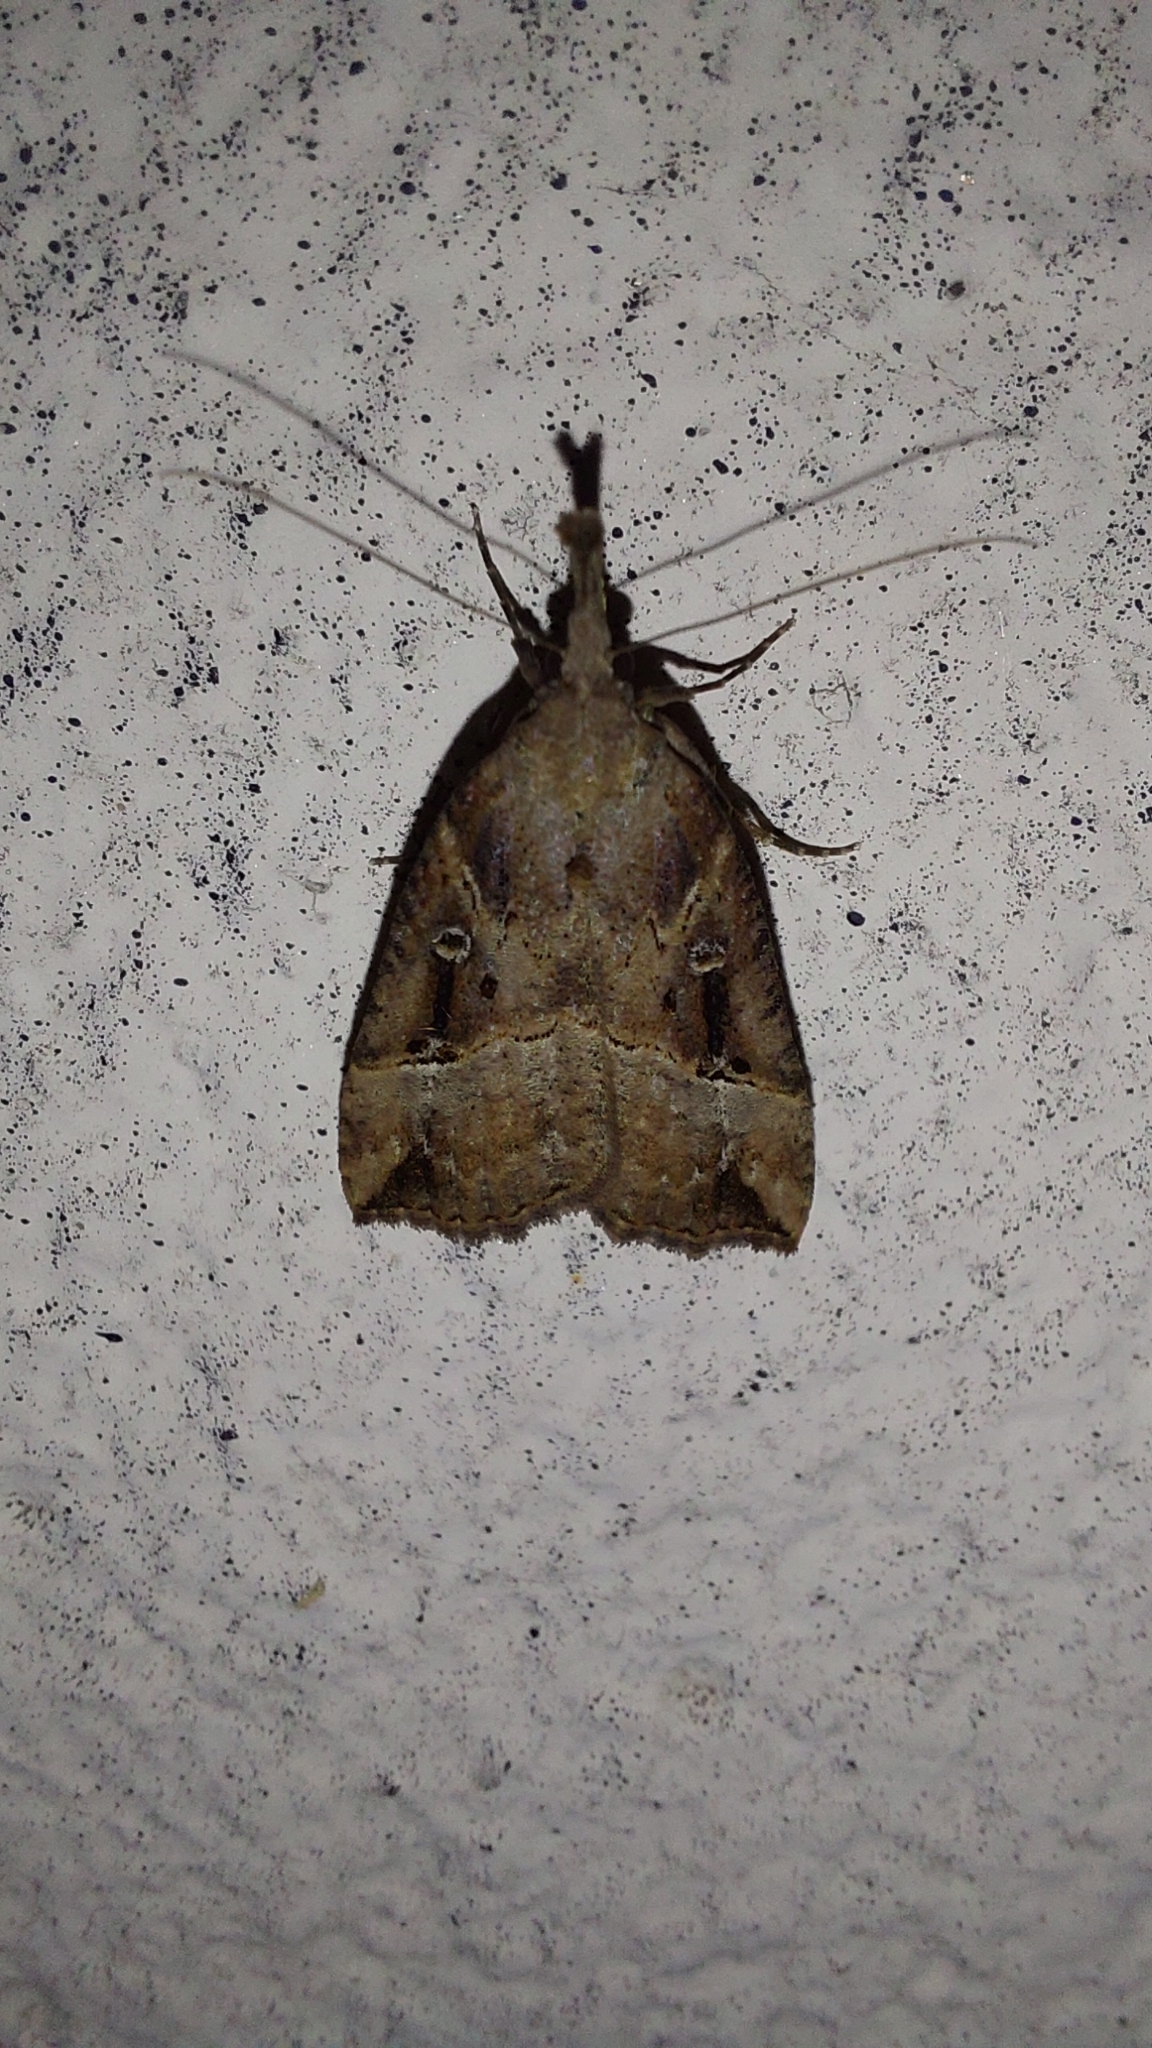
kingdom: Animalia
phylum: Arthropoda
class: Insecta
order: Lepidoptera
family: Erebidae
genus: Hypena
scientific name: Hypena rostralis
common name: Buttoned snout
